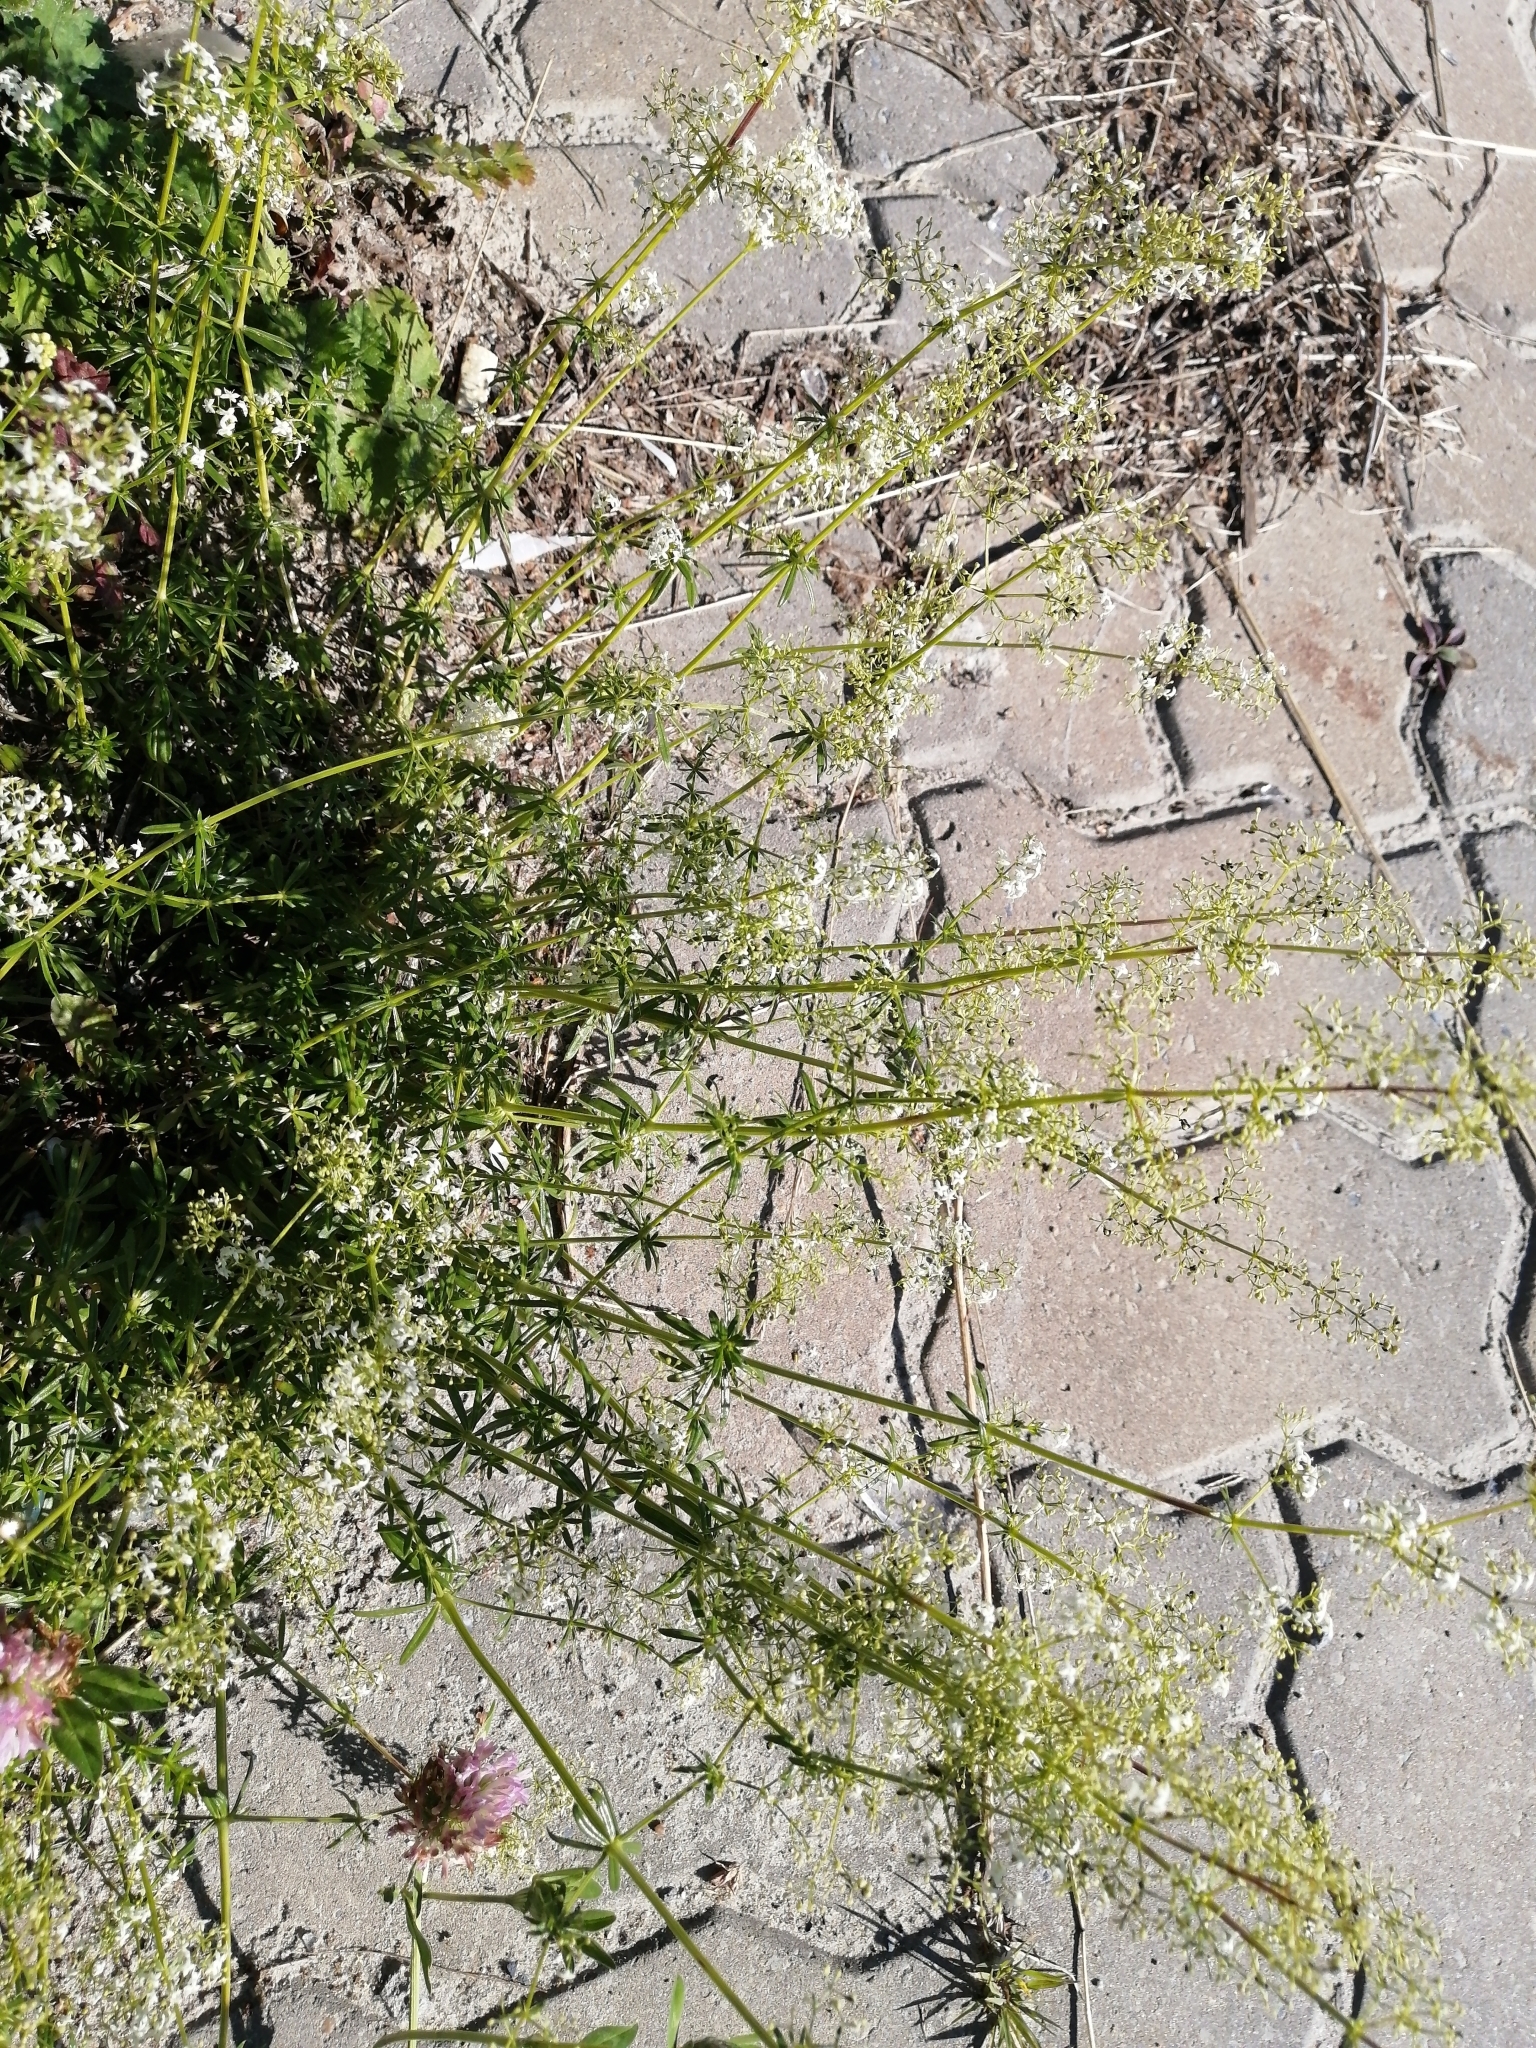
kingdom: Plantae
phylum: Tracheophyta
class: Magnoliopsida
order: Gentianales
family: Rubiaceae
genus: Galium
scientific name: Galium mollugo
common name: Hedge bedstraw
